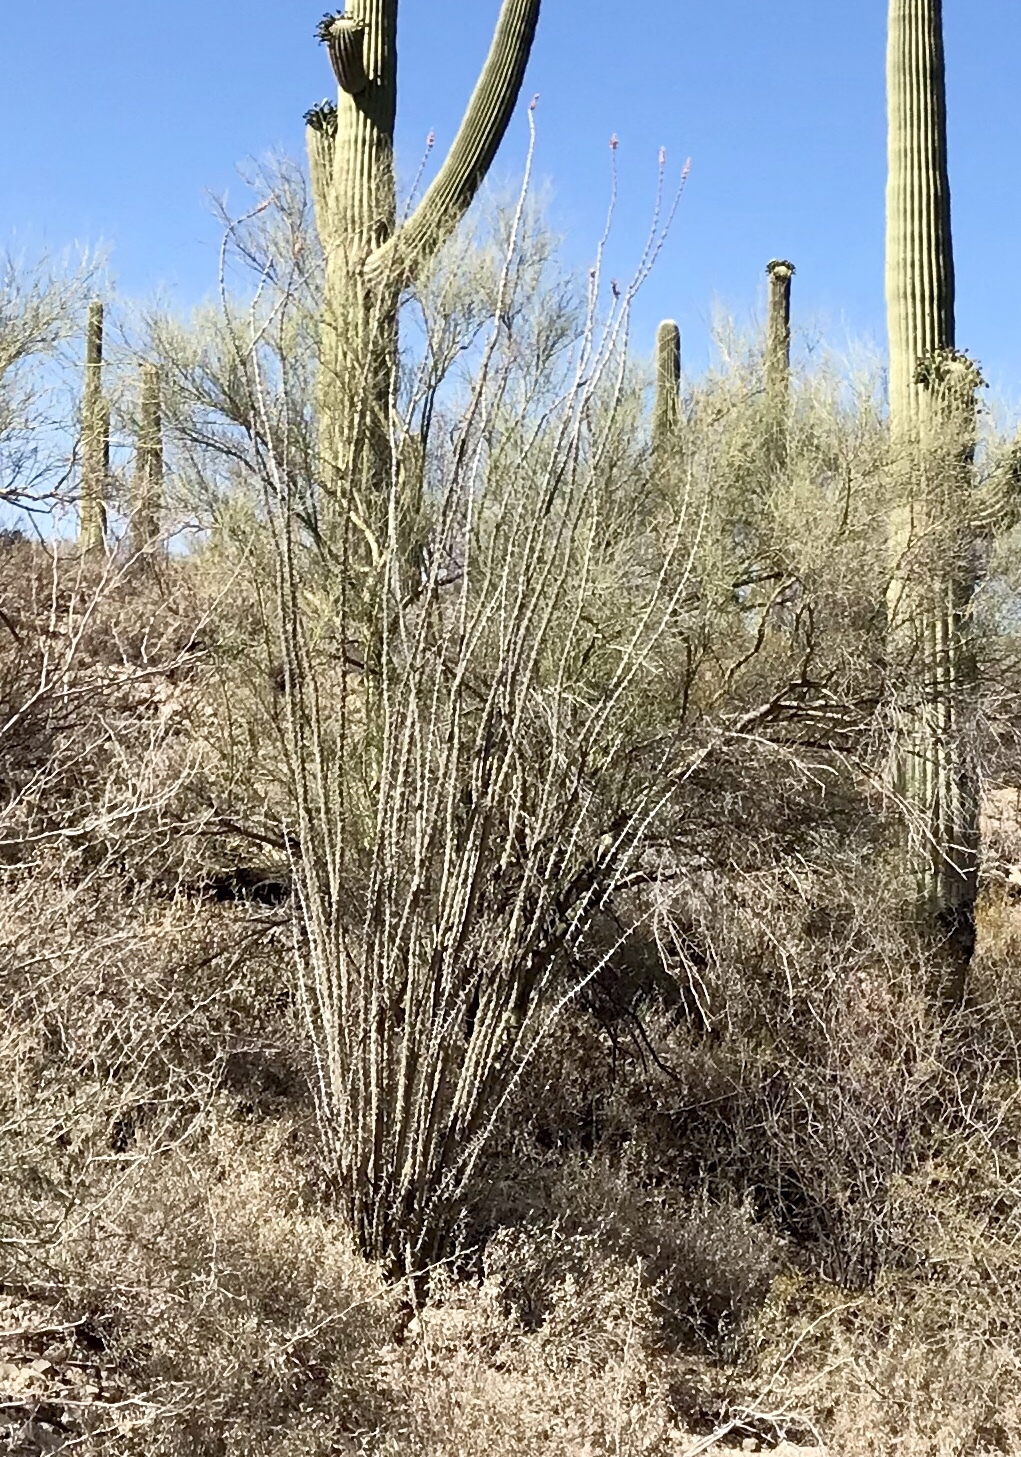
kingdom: Plantae
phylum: Tracheophyta
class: Magnoliopsida
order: Fabales
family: Fabaceae
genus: Parkinsonia
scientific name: Parkinsonia microphylla
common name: Yellow paloverde
